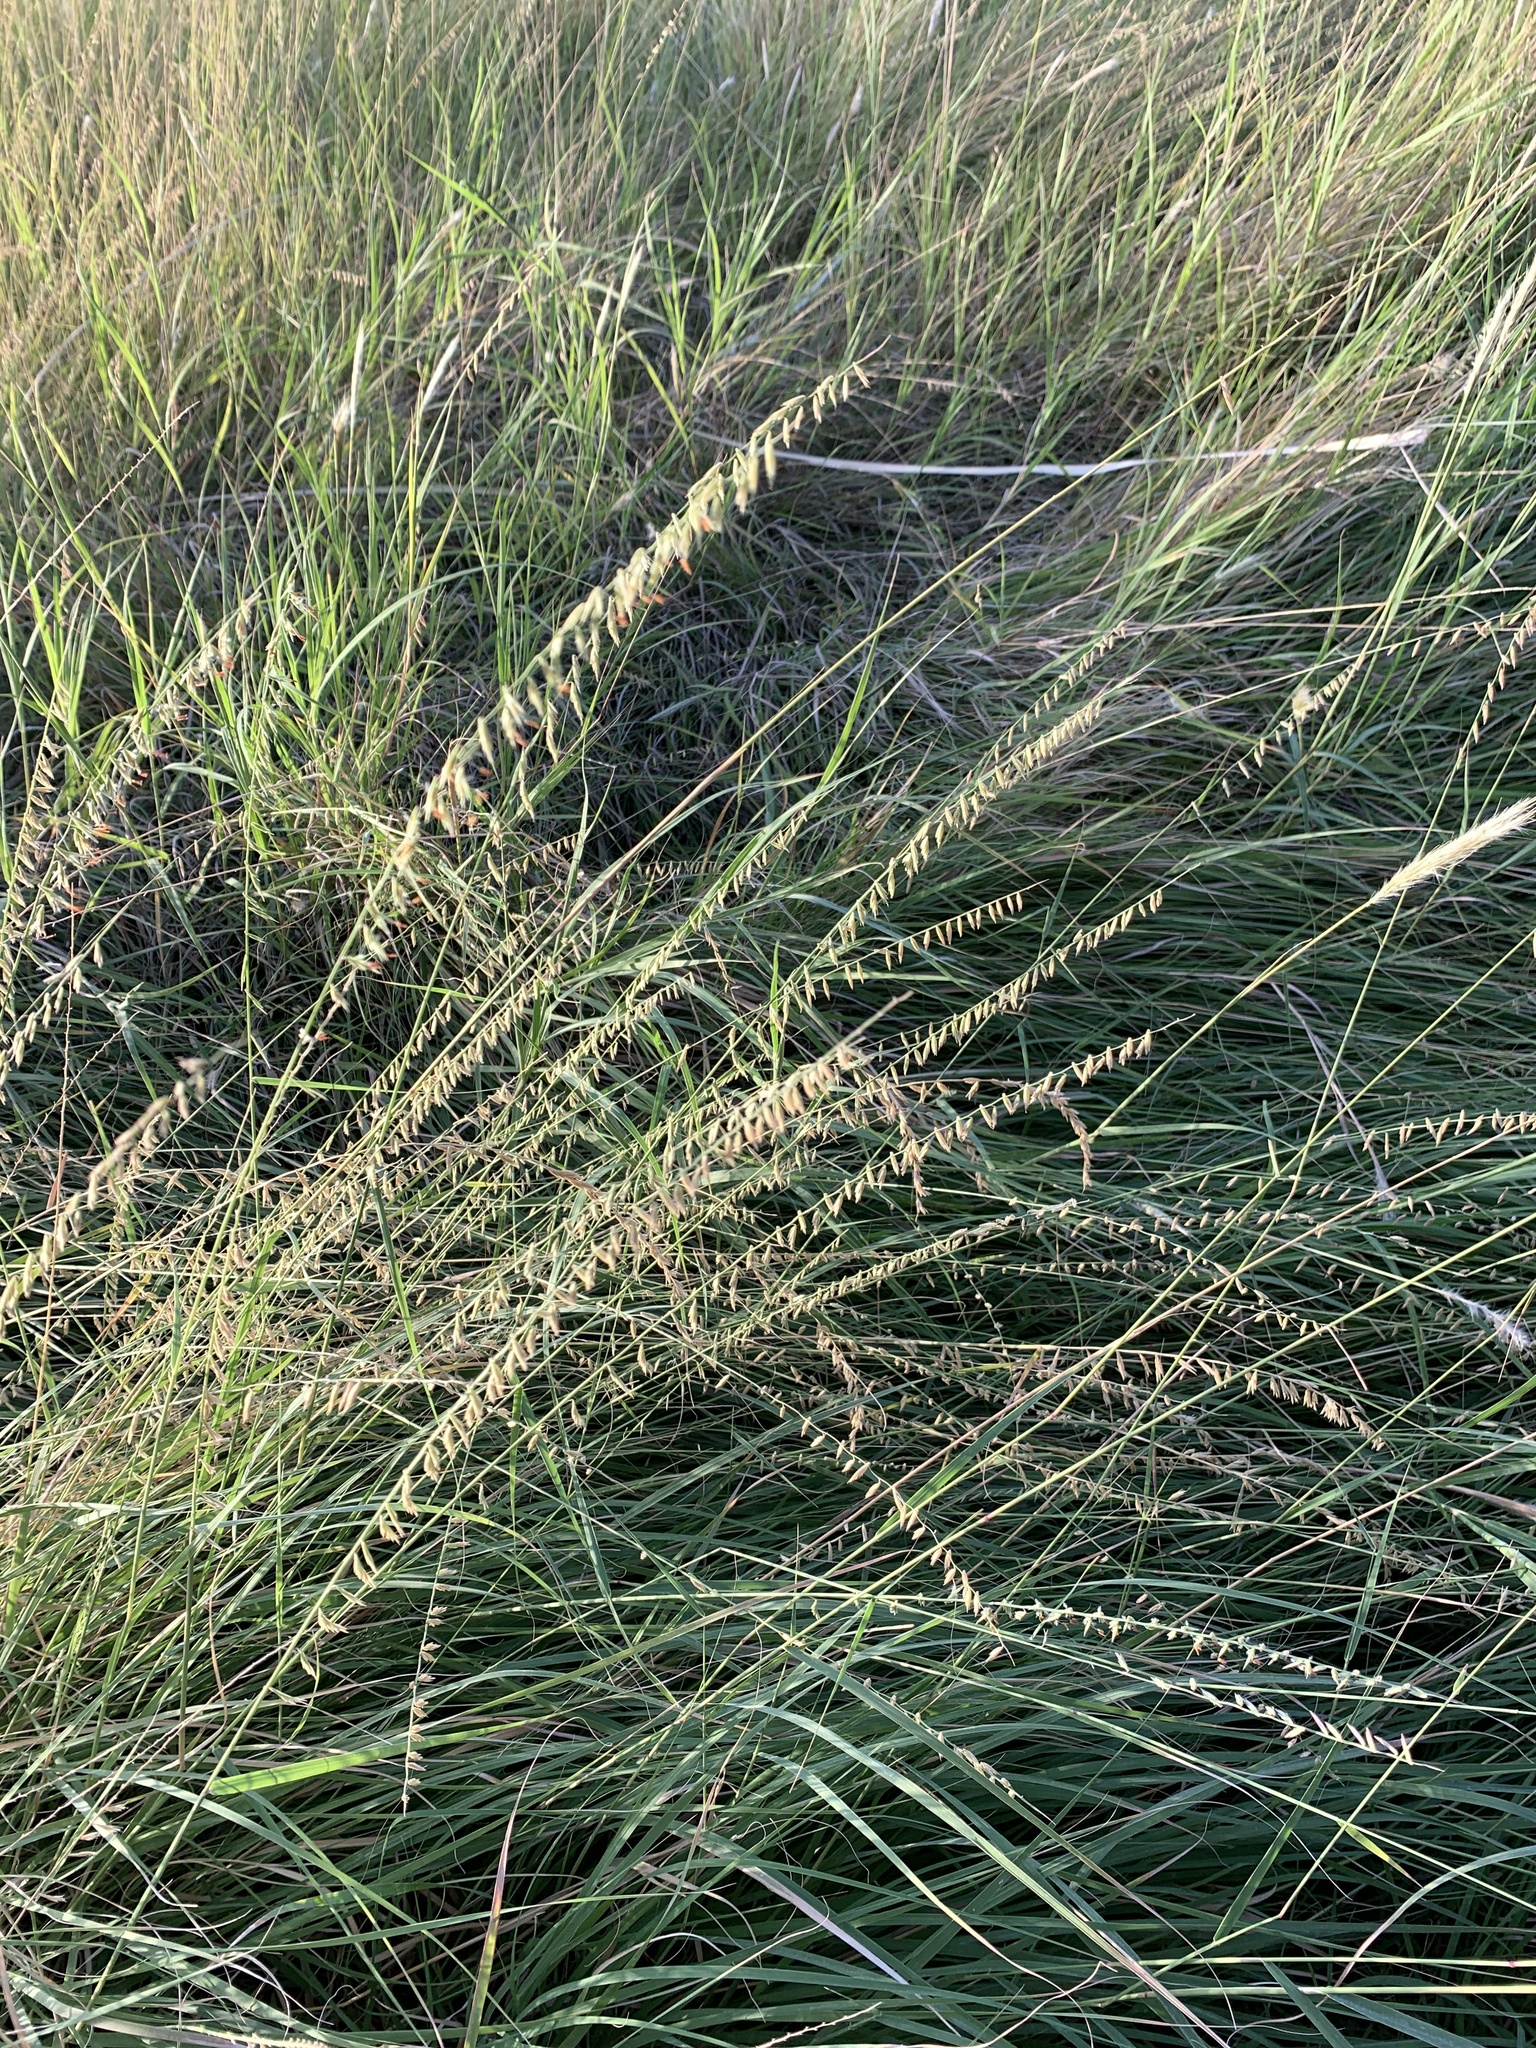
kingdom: Plantae
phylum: Tracheophyta
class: Liliopsida
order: Poales
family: Poaceae
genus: Bouteloua
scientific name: Bouteloua curtipendula
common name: Side-oats grama
